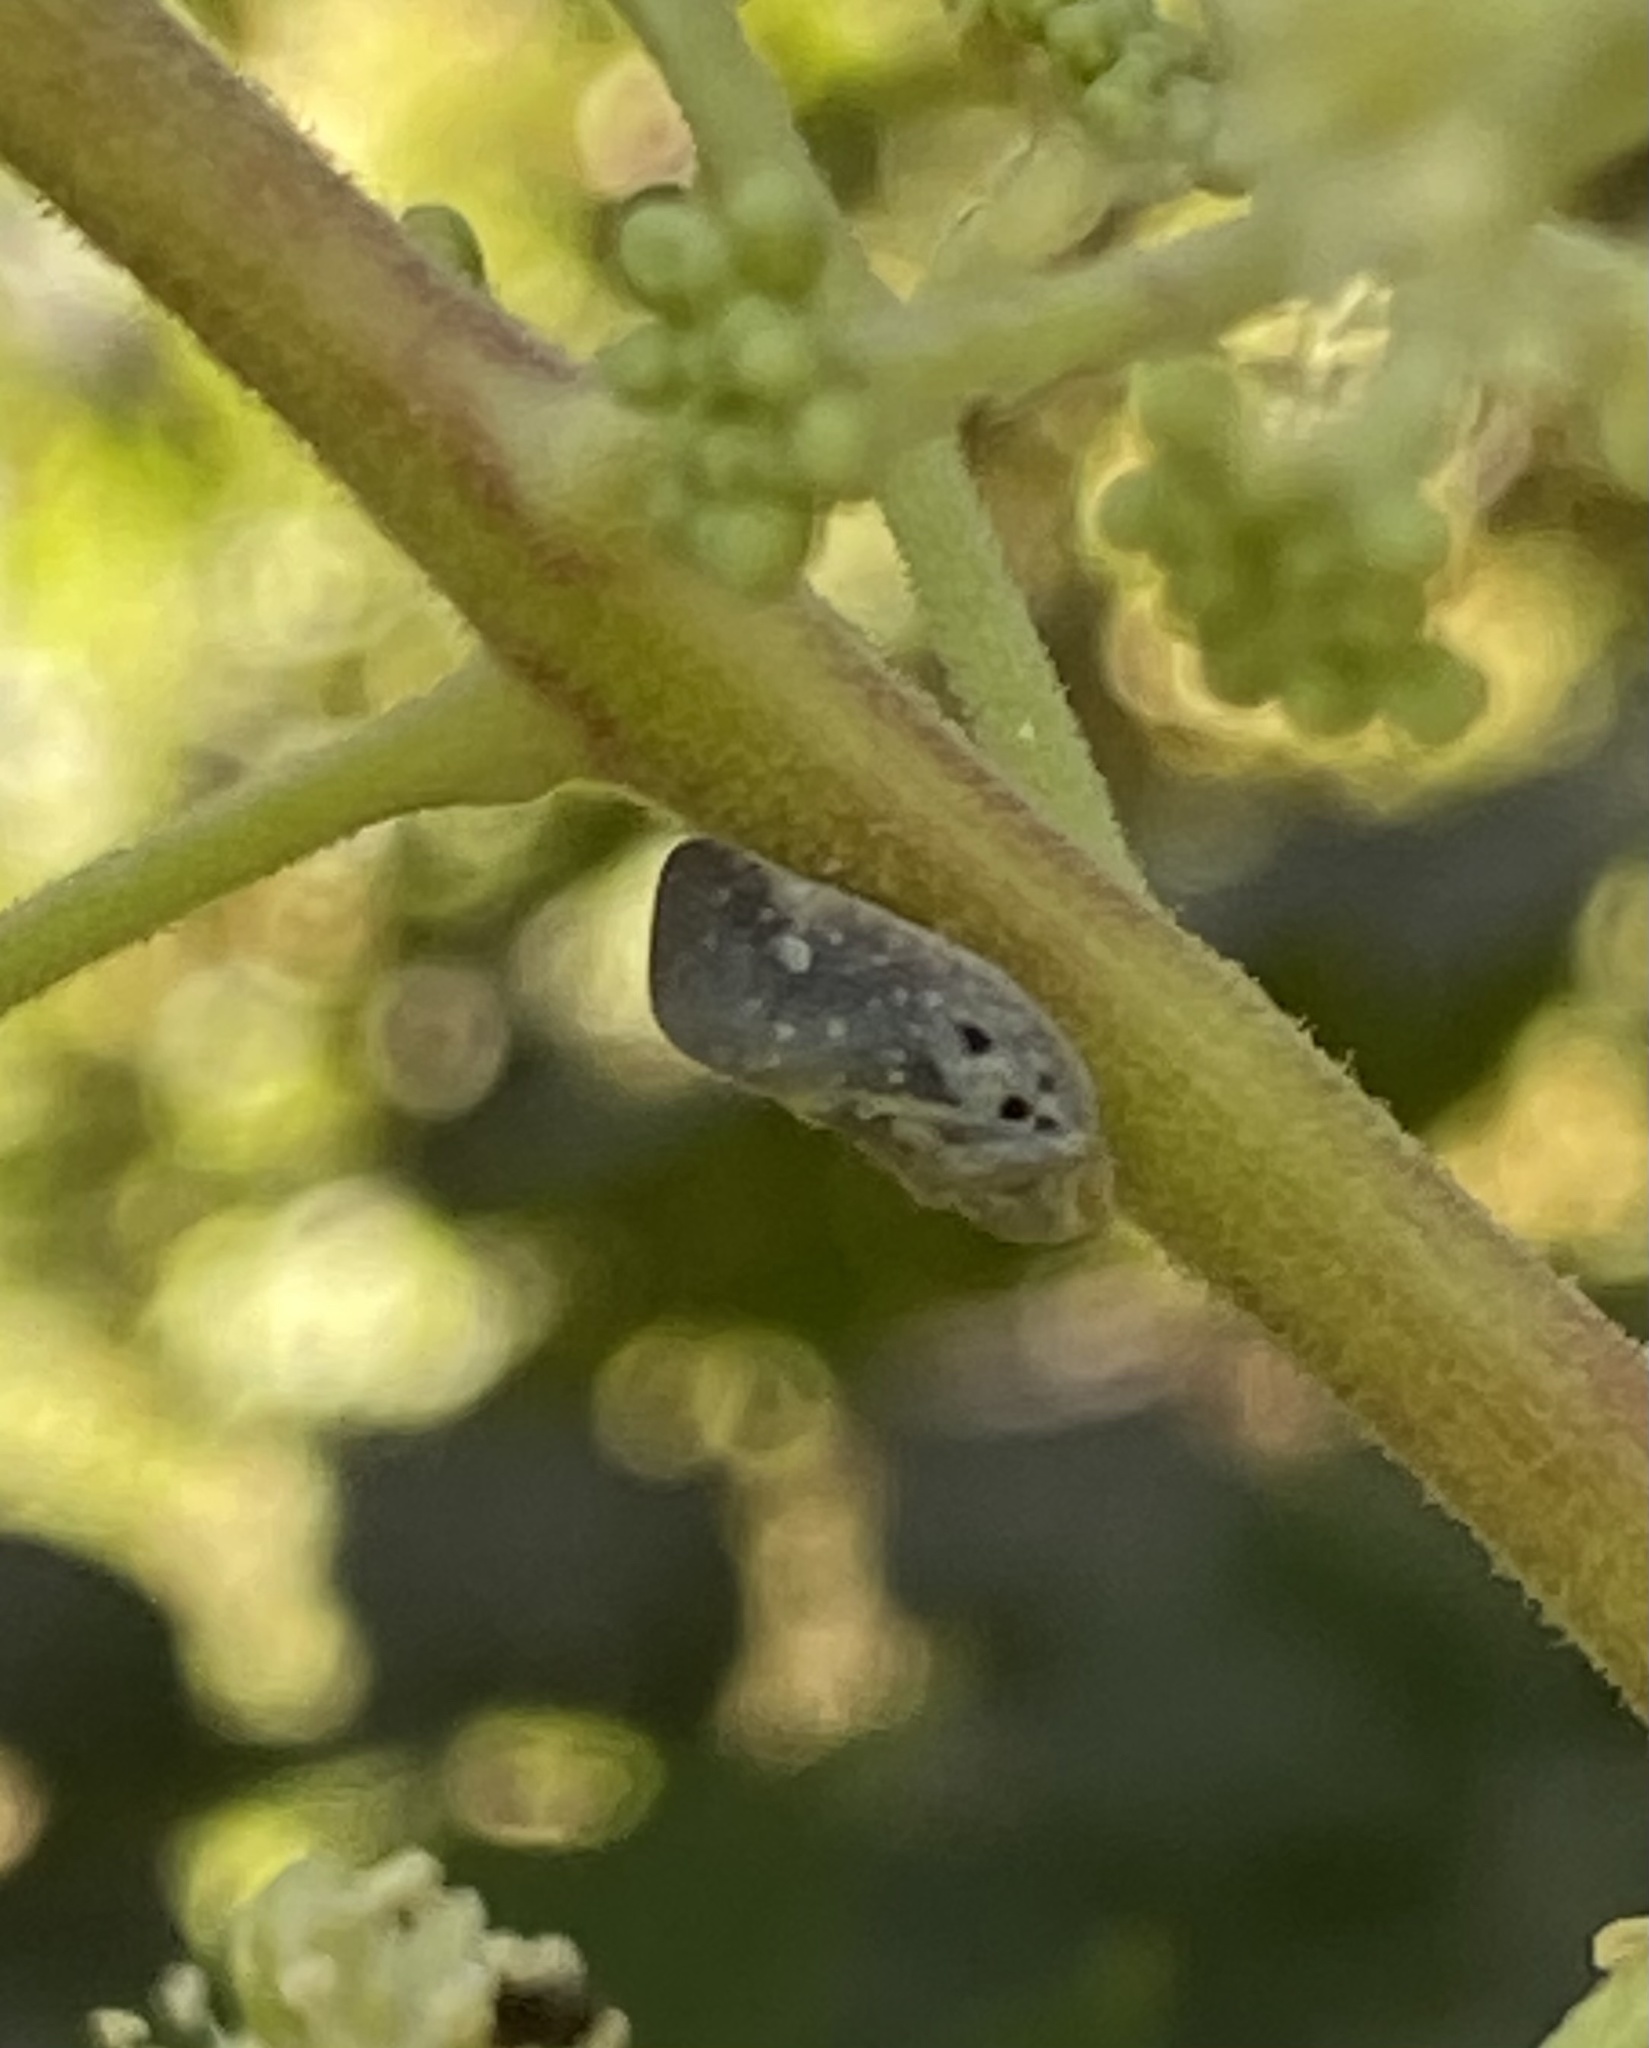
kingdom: Animalia
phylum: Arthropoda
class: Insecta
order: Hemiptera
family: Flatidae
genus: Metcalfa
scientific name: Metcalfa pruinosa
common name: Citrus flatid planthopper
